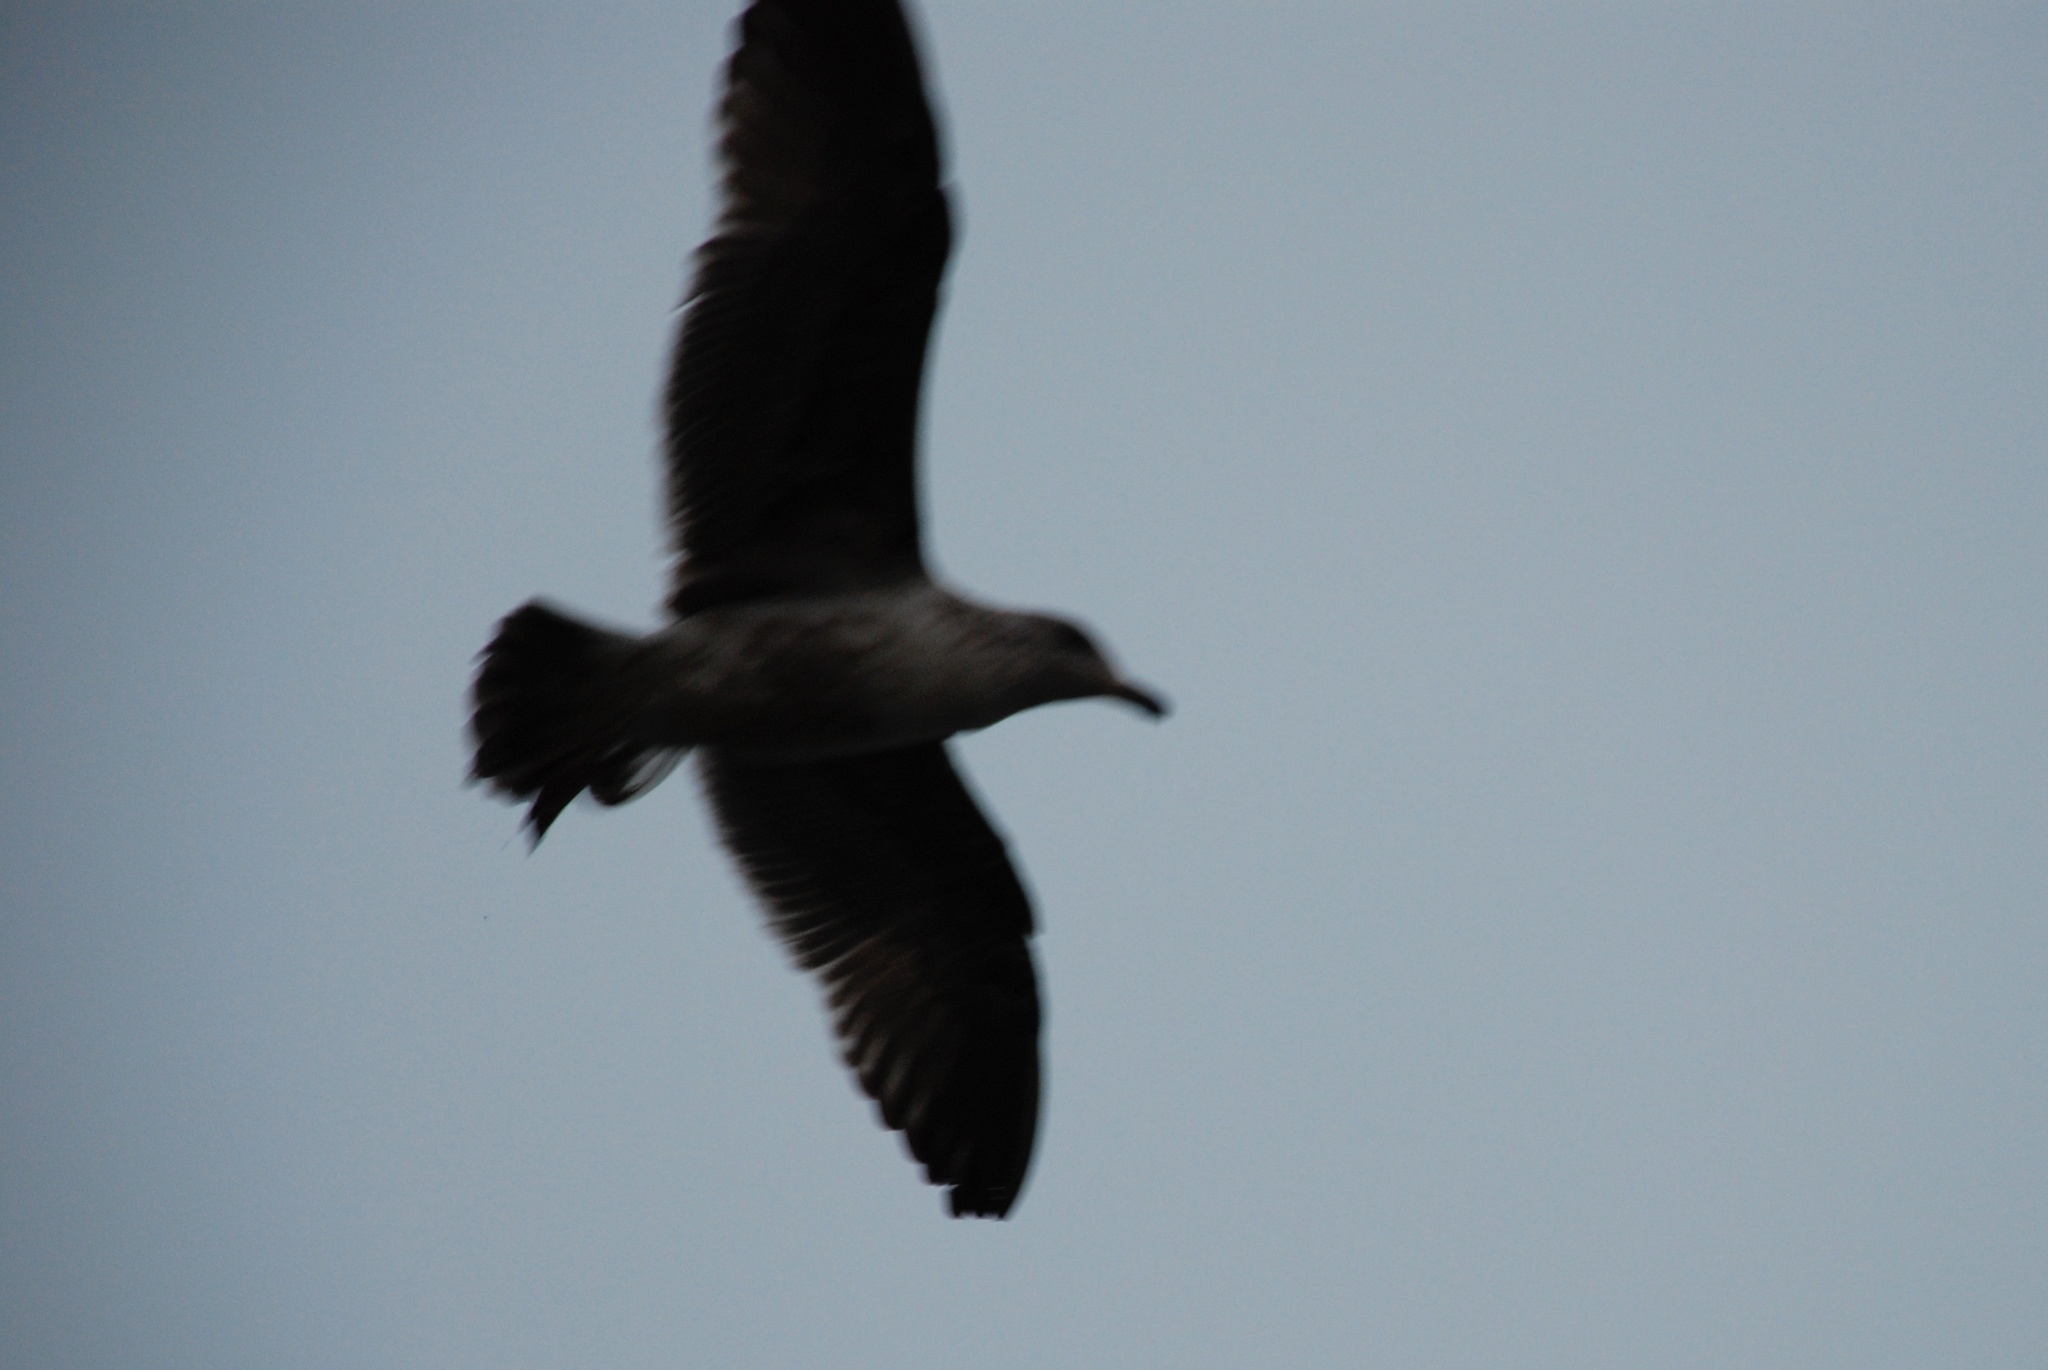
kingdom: Animalia
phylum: Chordata
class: Aves
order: Charadriiformes
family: Laridae
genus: Larus
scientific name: Larus
